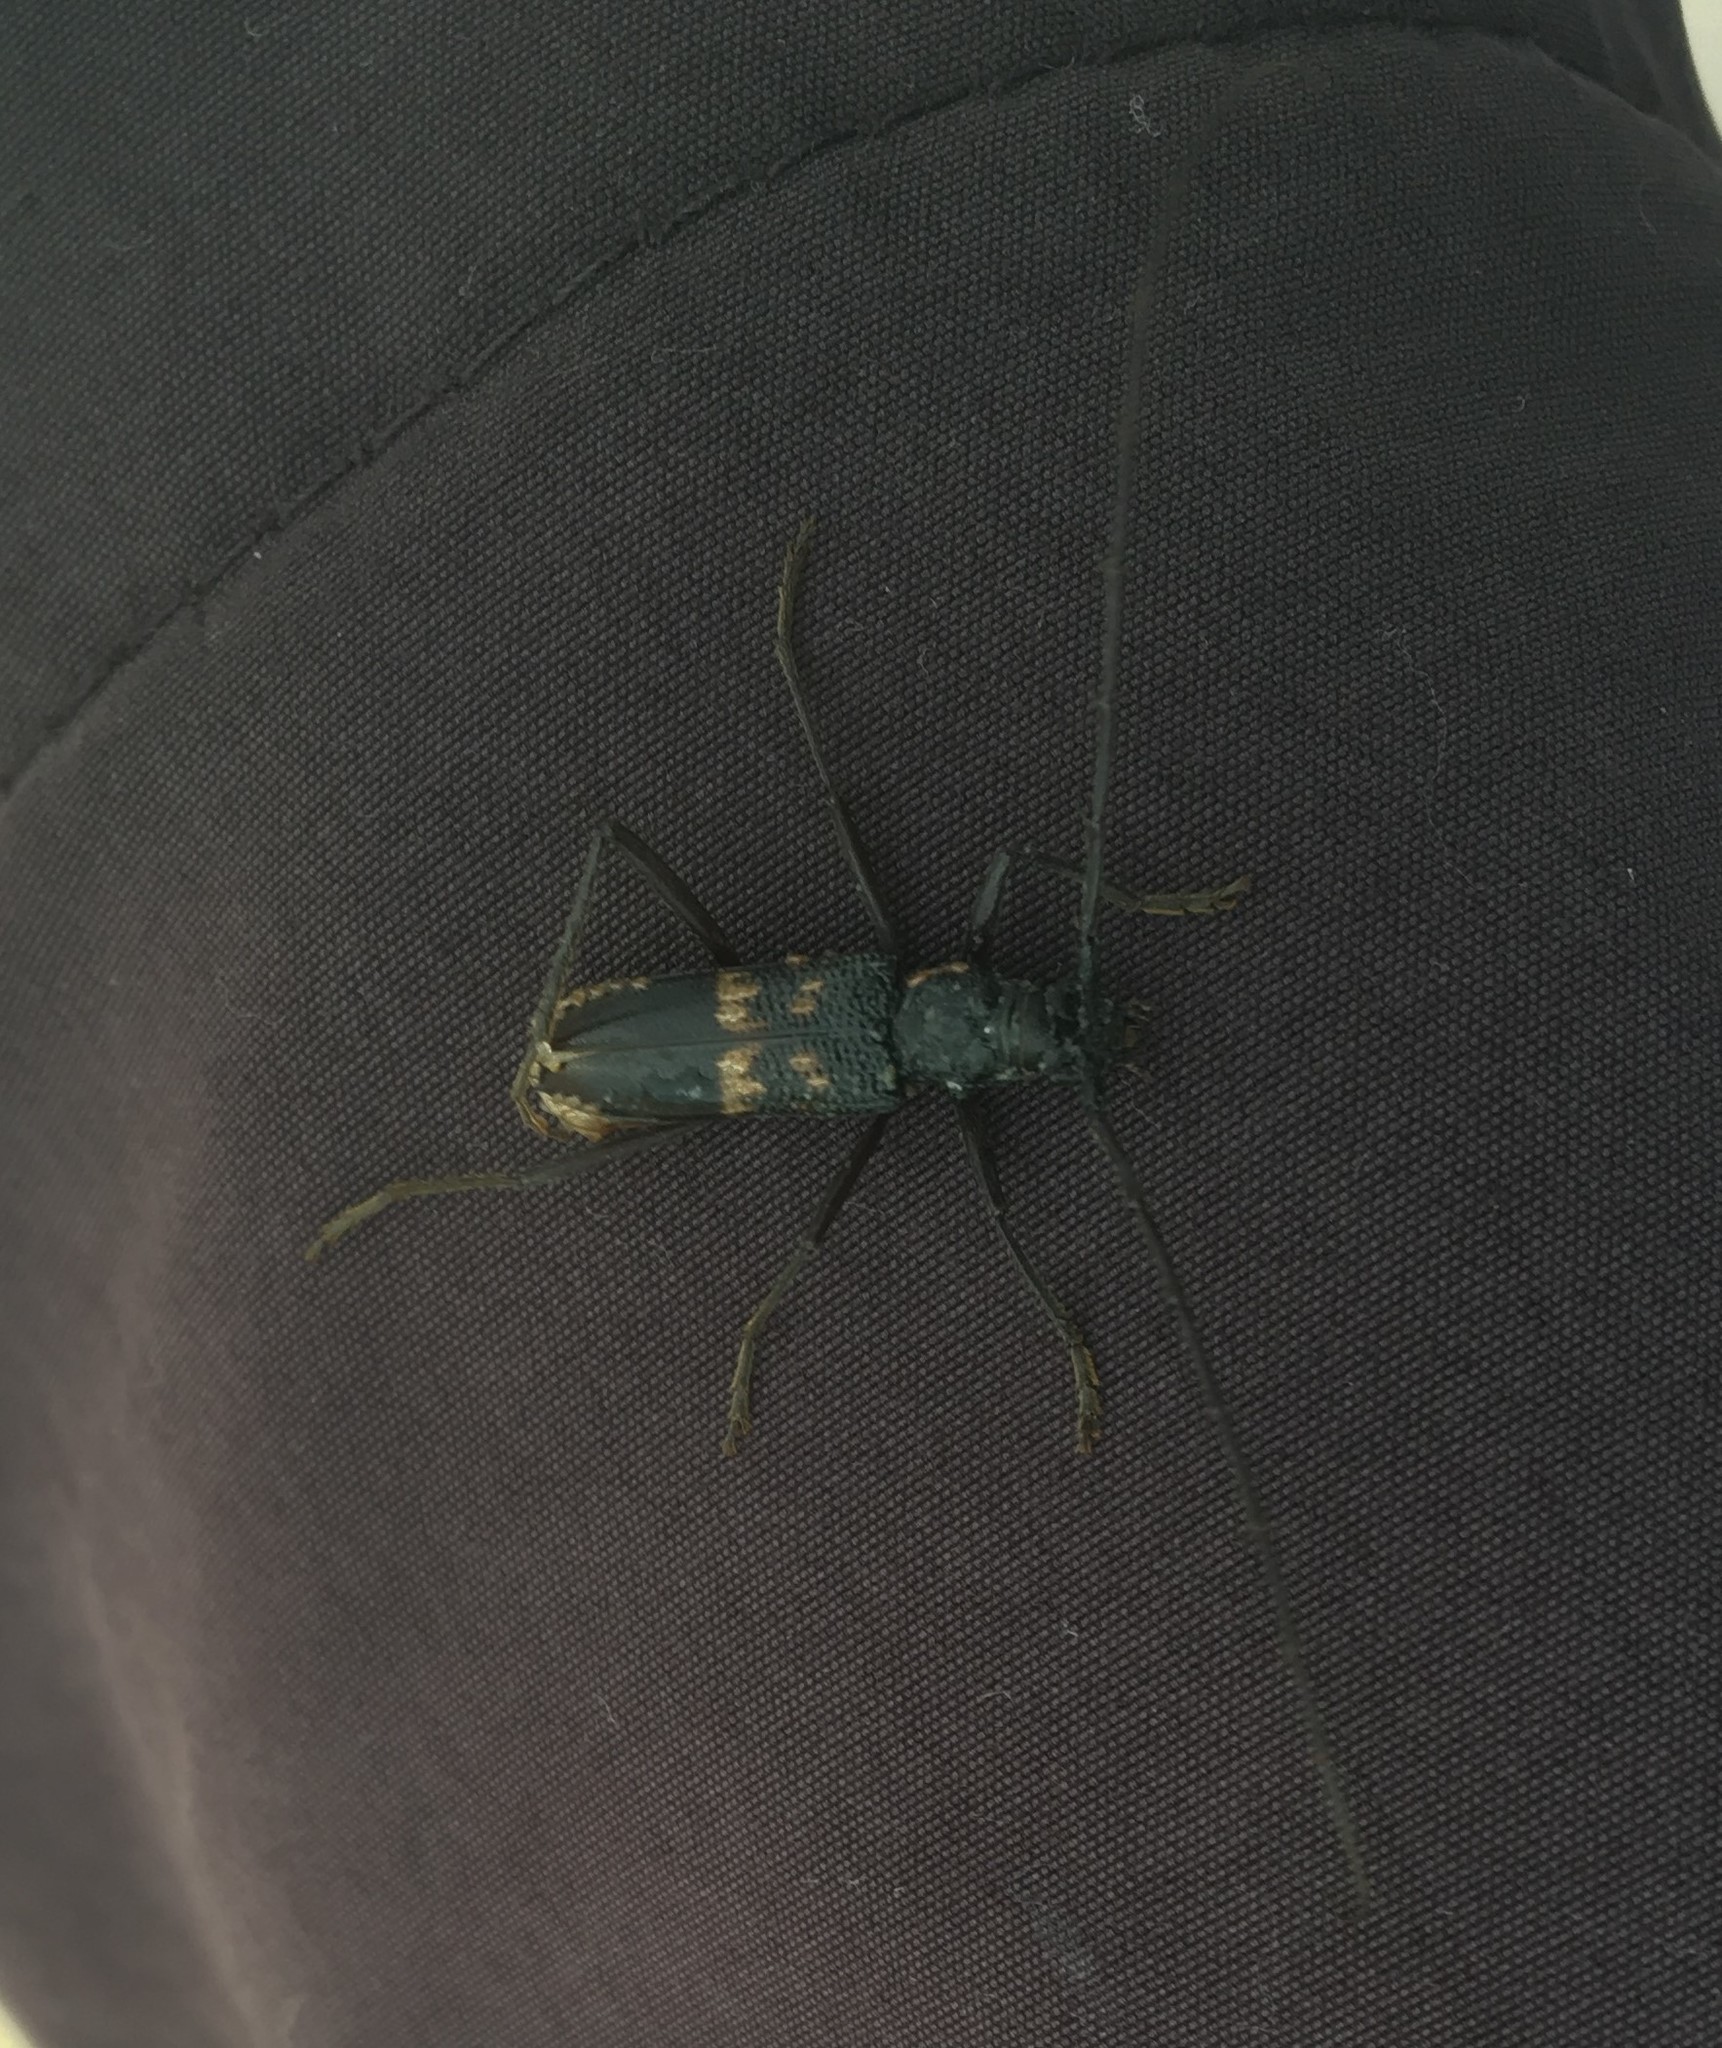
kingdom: Animalia
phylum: Arthropoda
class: Insecta
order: Coleoptera
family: Cerambycidae
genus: Phoracantha
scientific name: Phoracantha obscura
